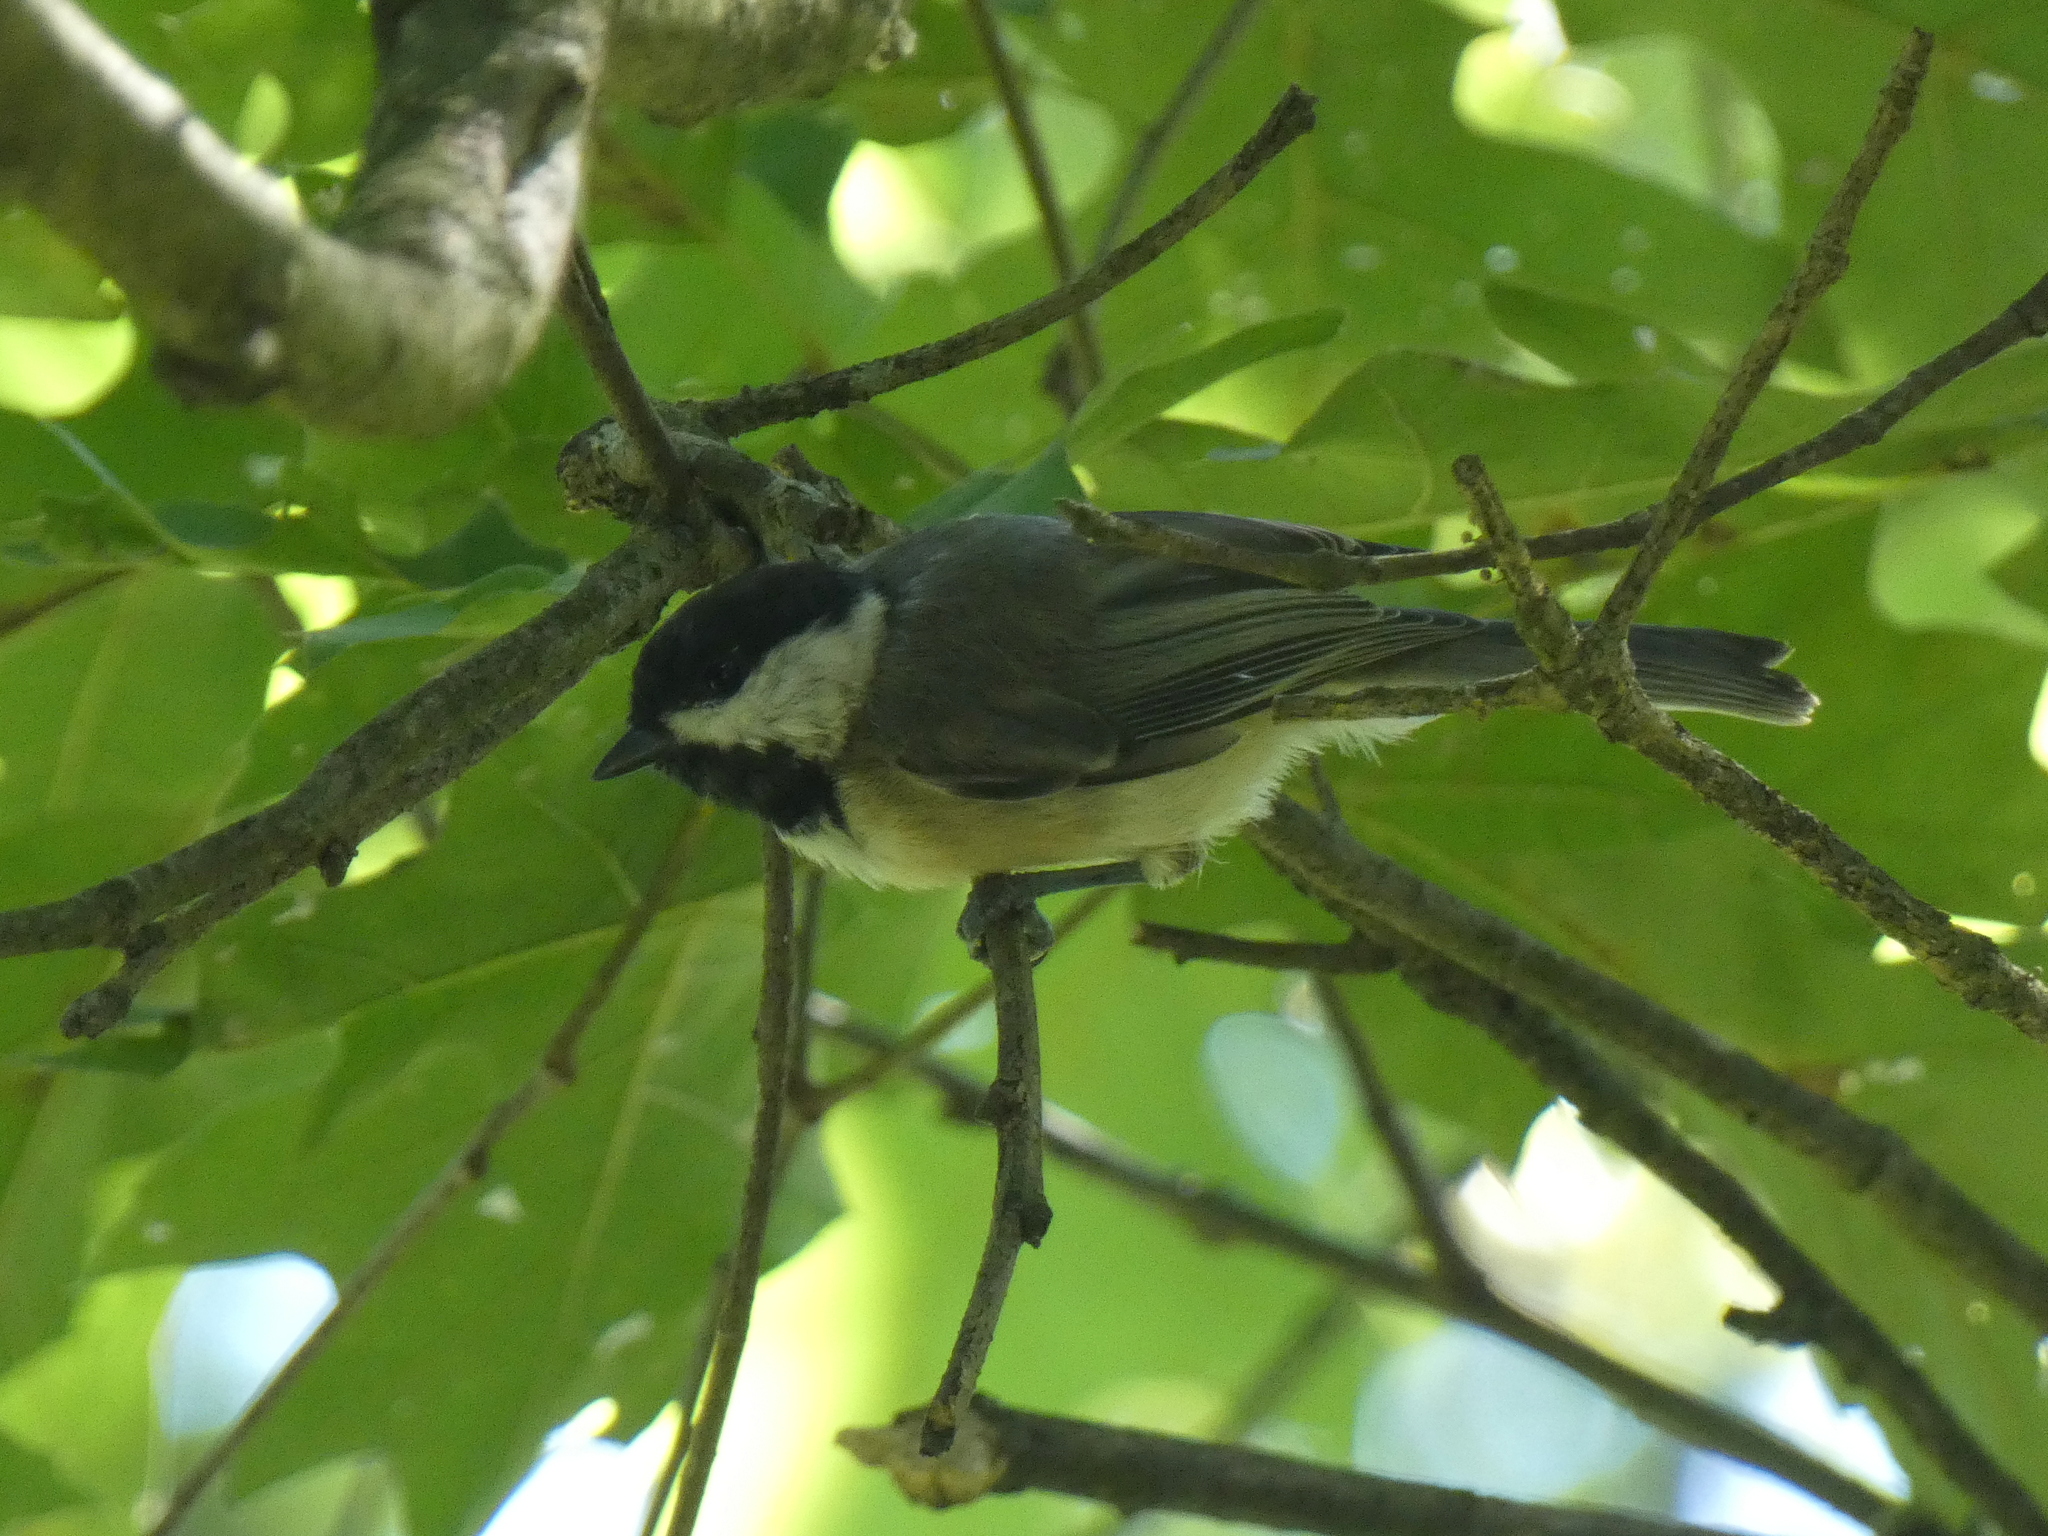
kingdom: Animalia
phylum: Chordata
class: Aves
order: Passeriformes
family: Paridae
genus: Poecile
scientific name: Poecile carolinensis
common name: Carolina chickadee
